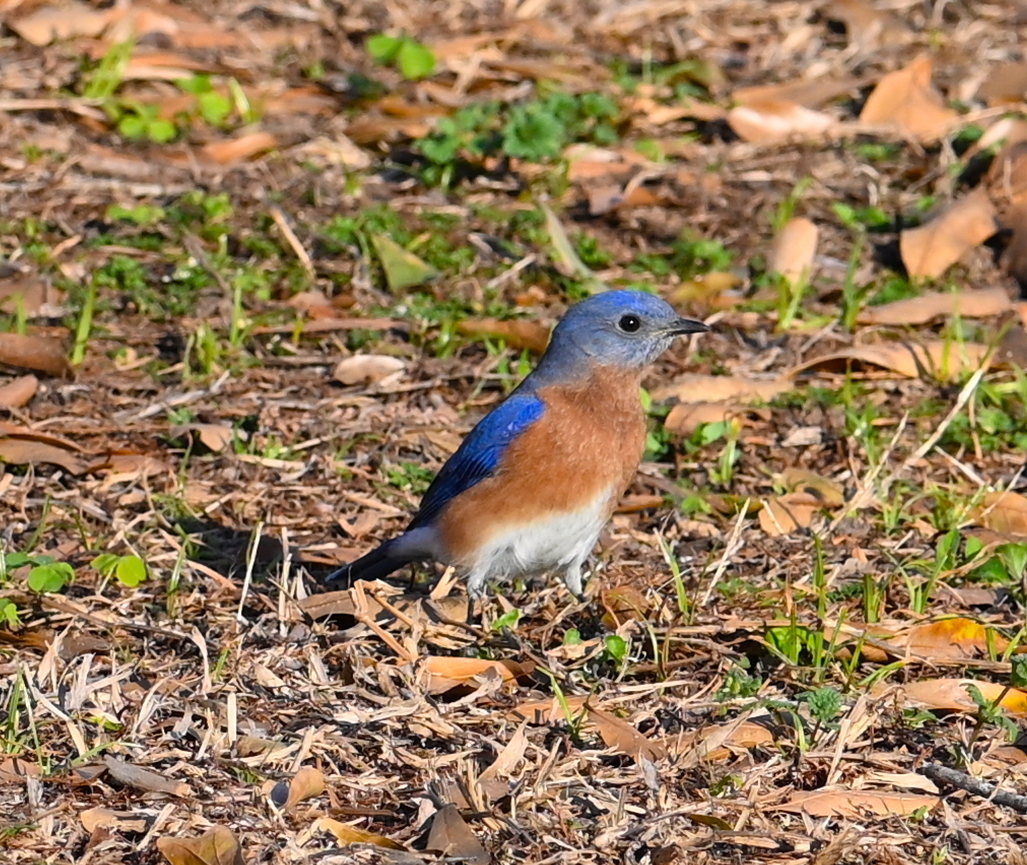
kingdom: Animalia
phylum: Chordata
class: Aves
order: Passeriformes
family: Turdidae
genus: Sialia
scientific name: Sialia sialis
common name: Eastern bluebird
